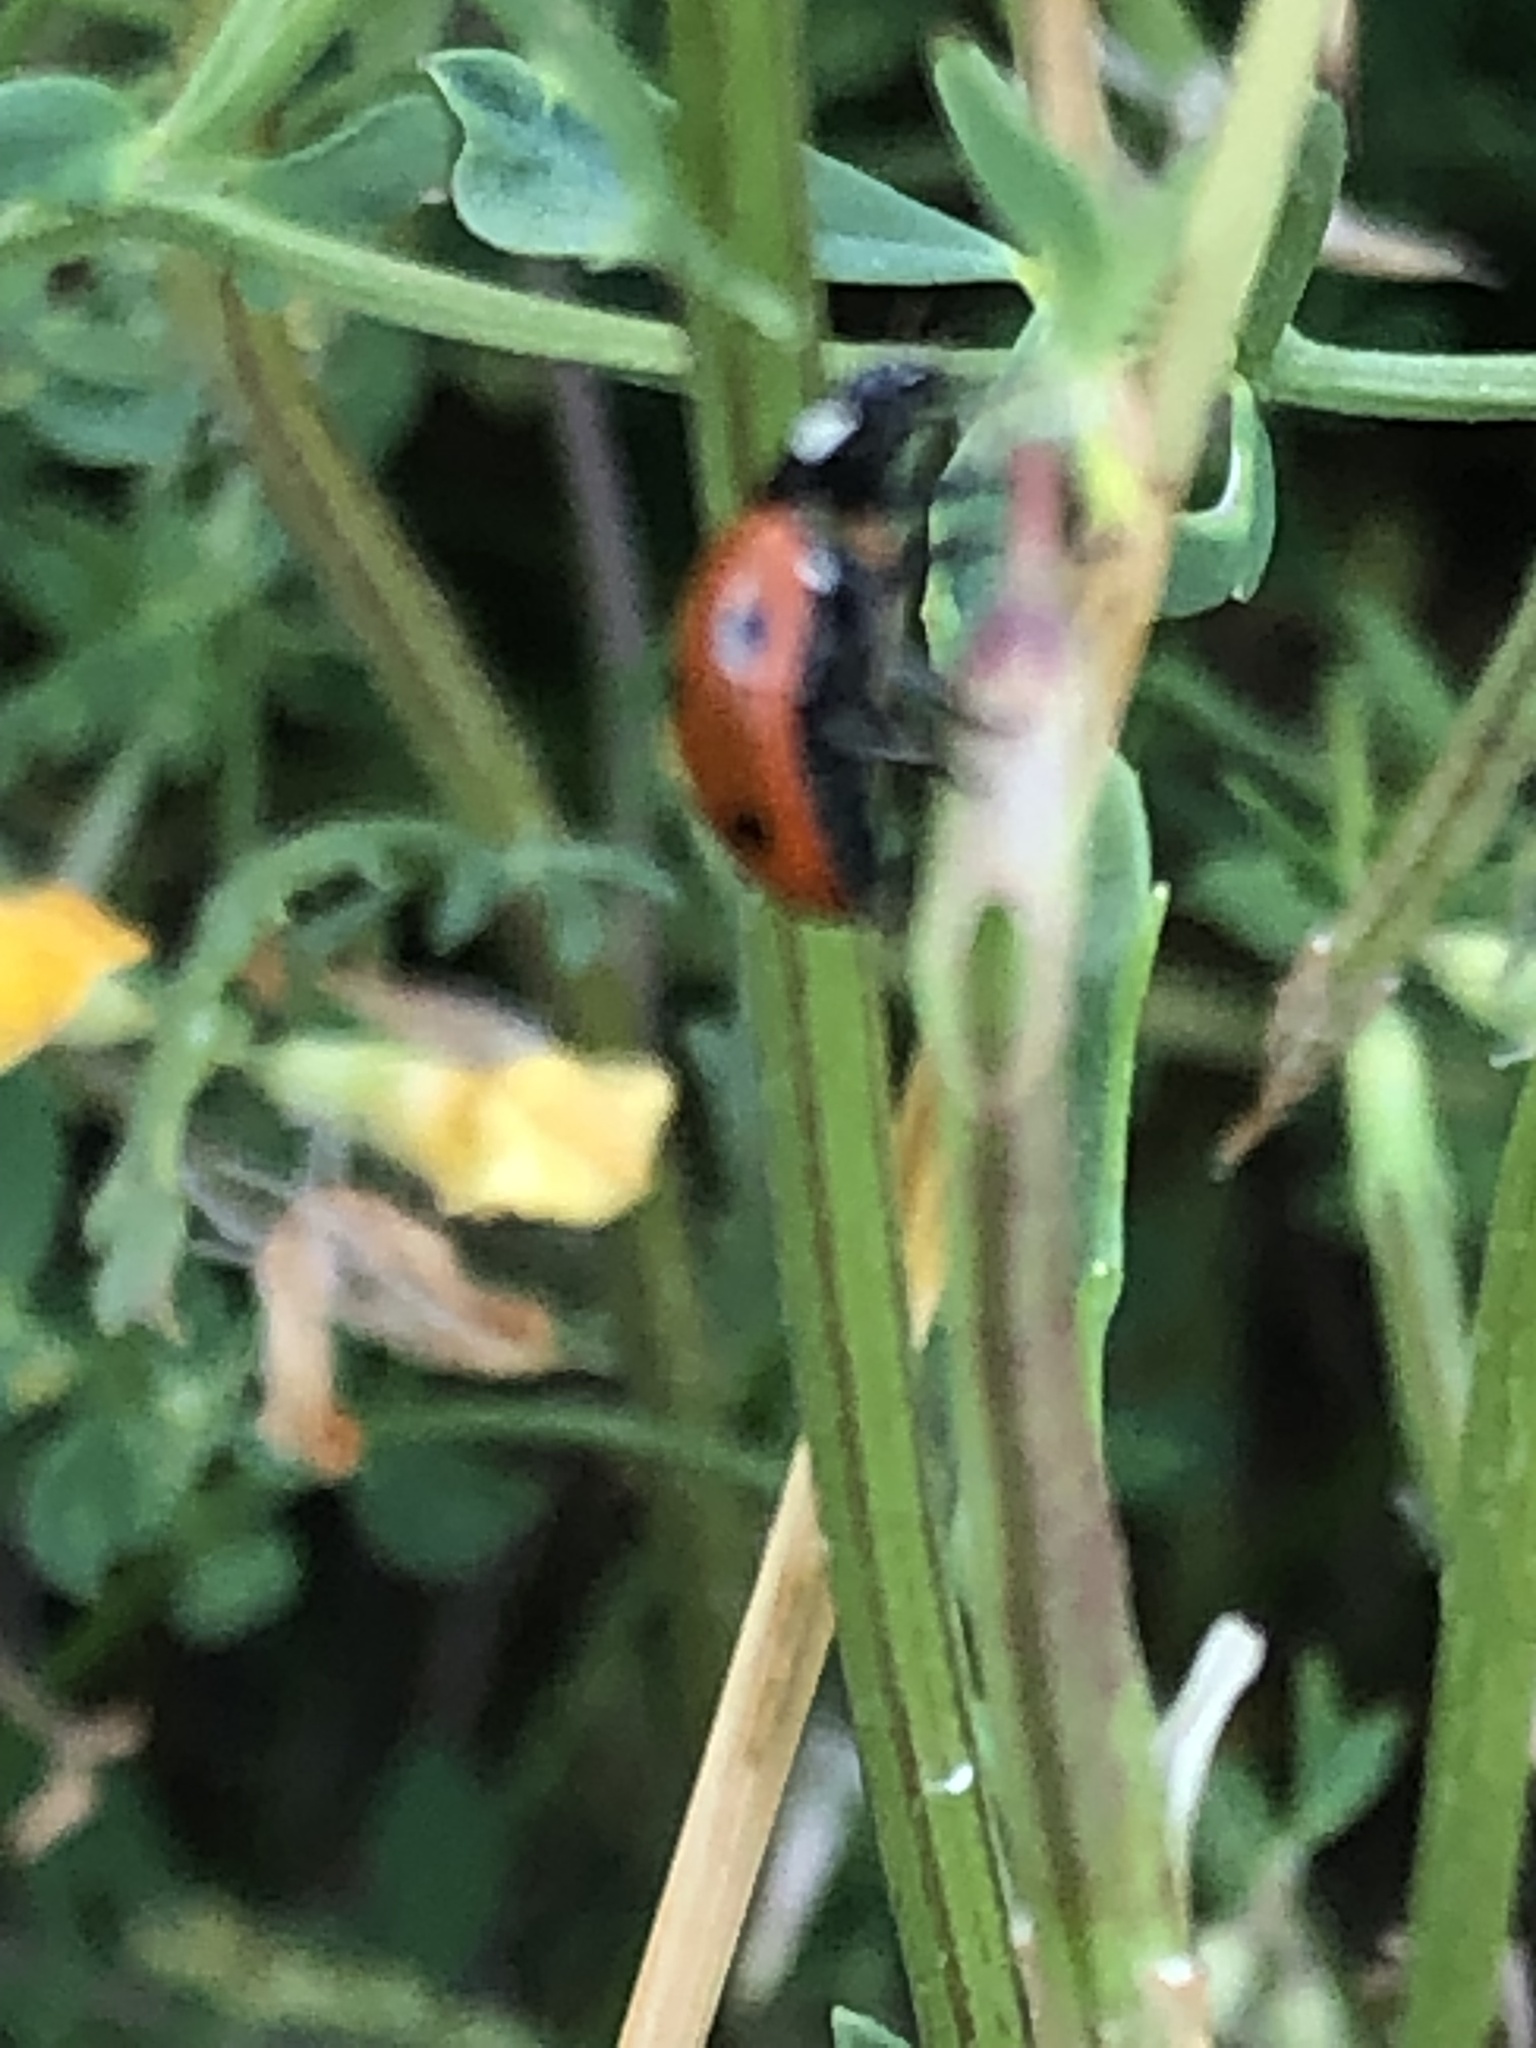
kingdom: Animalia
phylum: Arthropoda
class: Insecta
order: Coleoptera
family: Coccinellidae
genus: Coccinella
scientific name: Coccinella septempunctata
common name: Sevenspotted lady beetle
